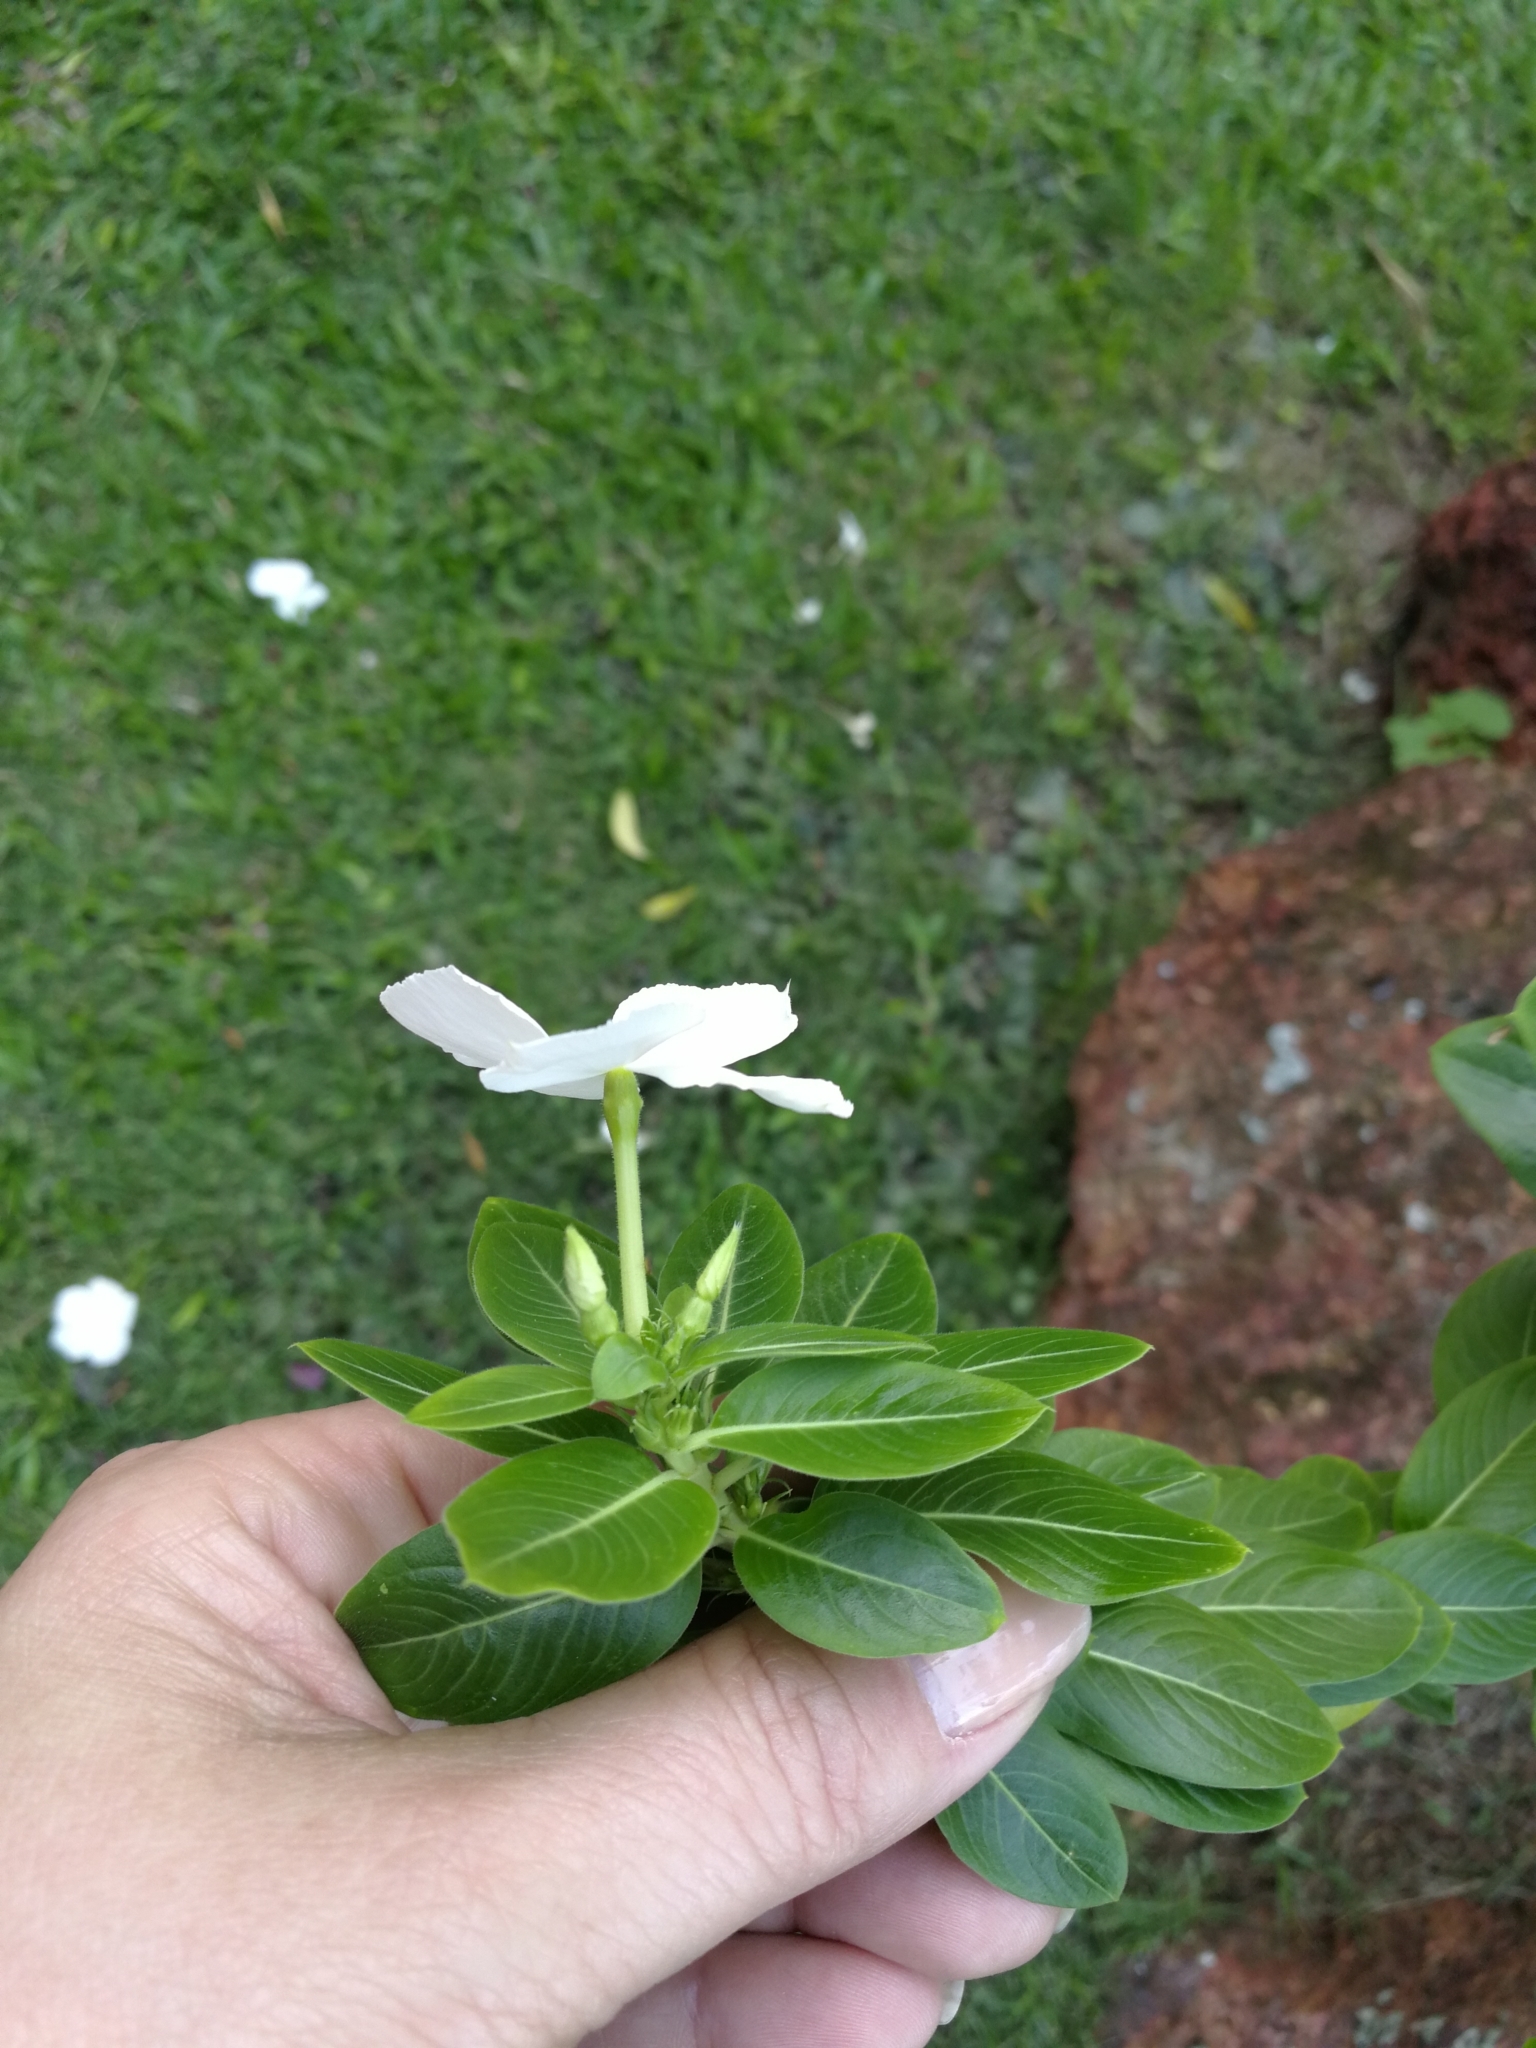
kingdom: Plantae
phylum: Tracheophyta
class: Magnoliopsida
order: Gentianales
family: Apocynaceae
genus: Catharanthus
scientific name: Catharanthus roseus
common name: Madagascar periwinkle
